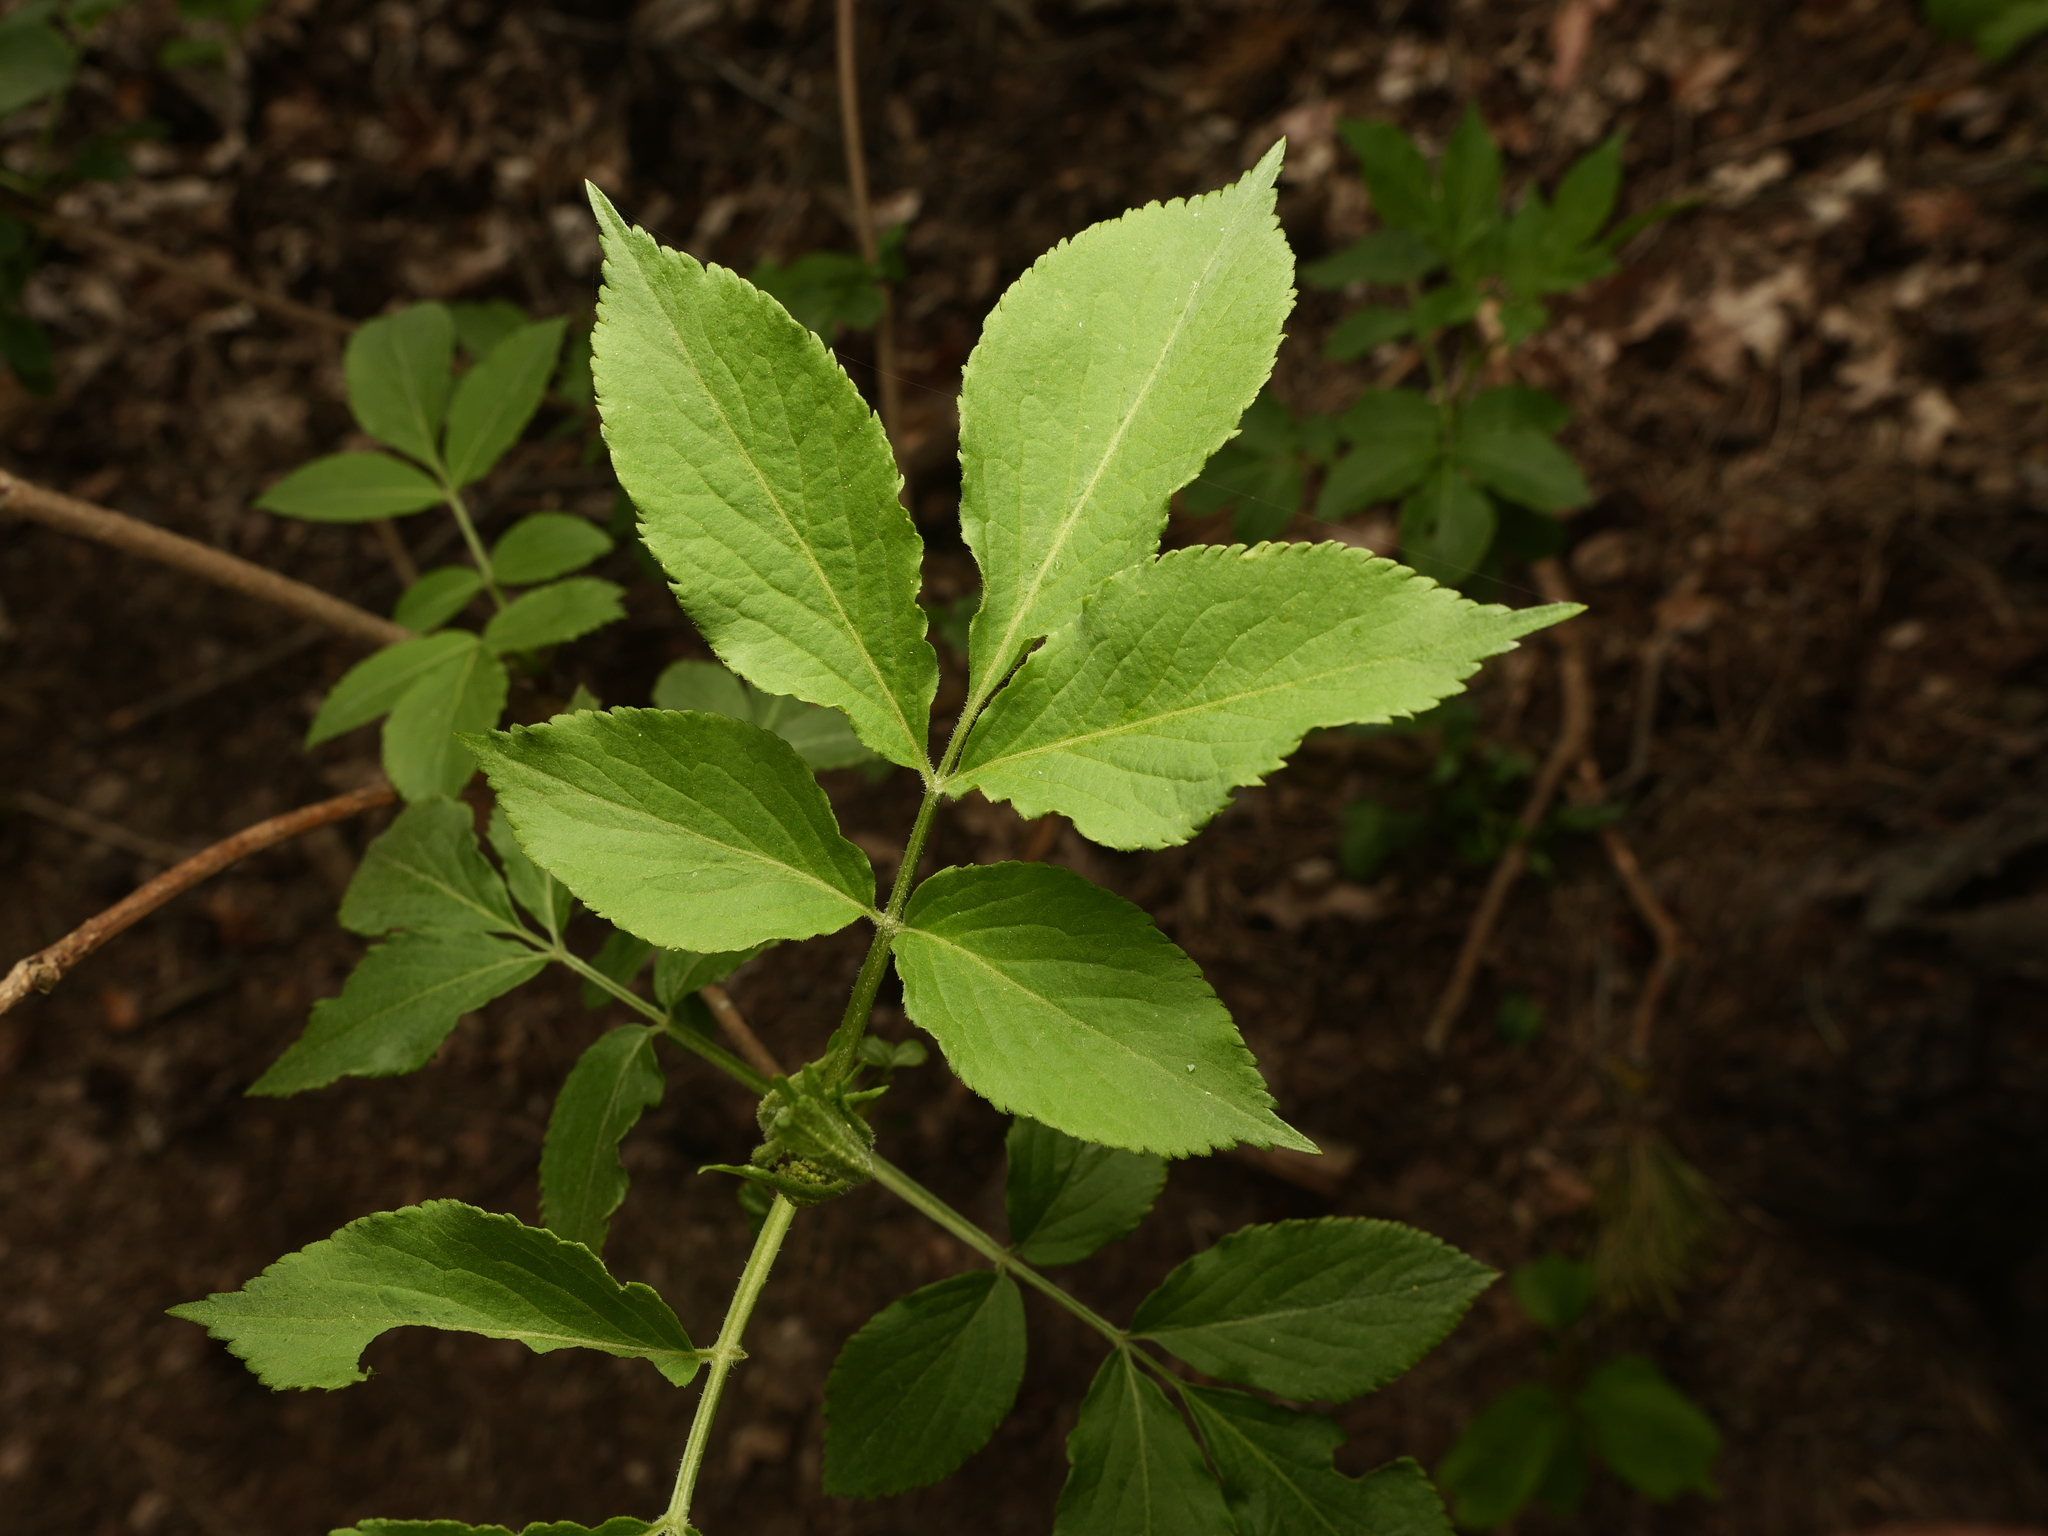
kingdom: Plantae
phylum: Tracheophyta
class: Magnoliopsida
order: Dipsacales
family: Viburnaceae
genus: Sambucus
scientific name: Sambucus nigra
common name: Elder
